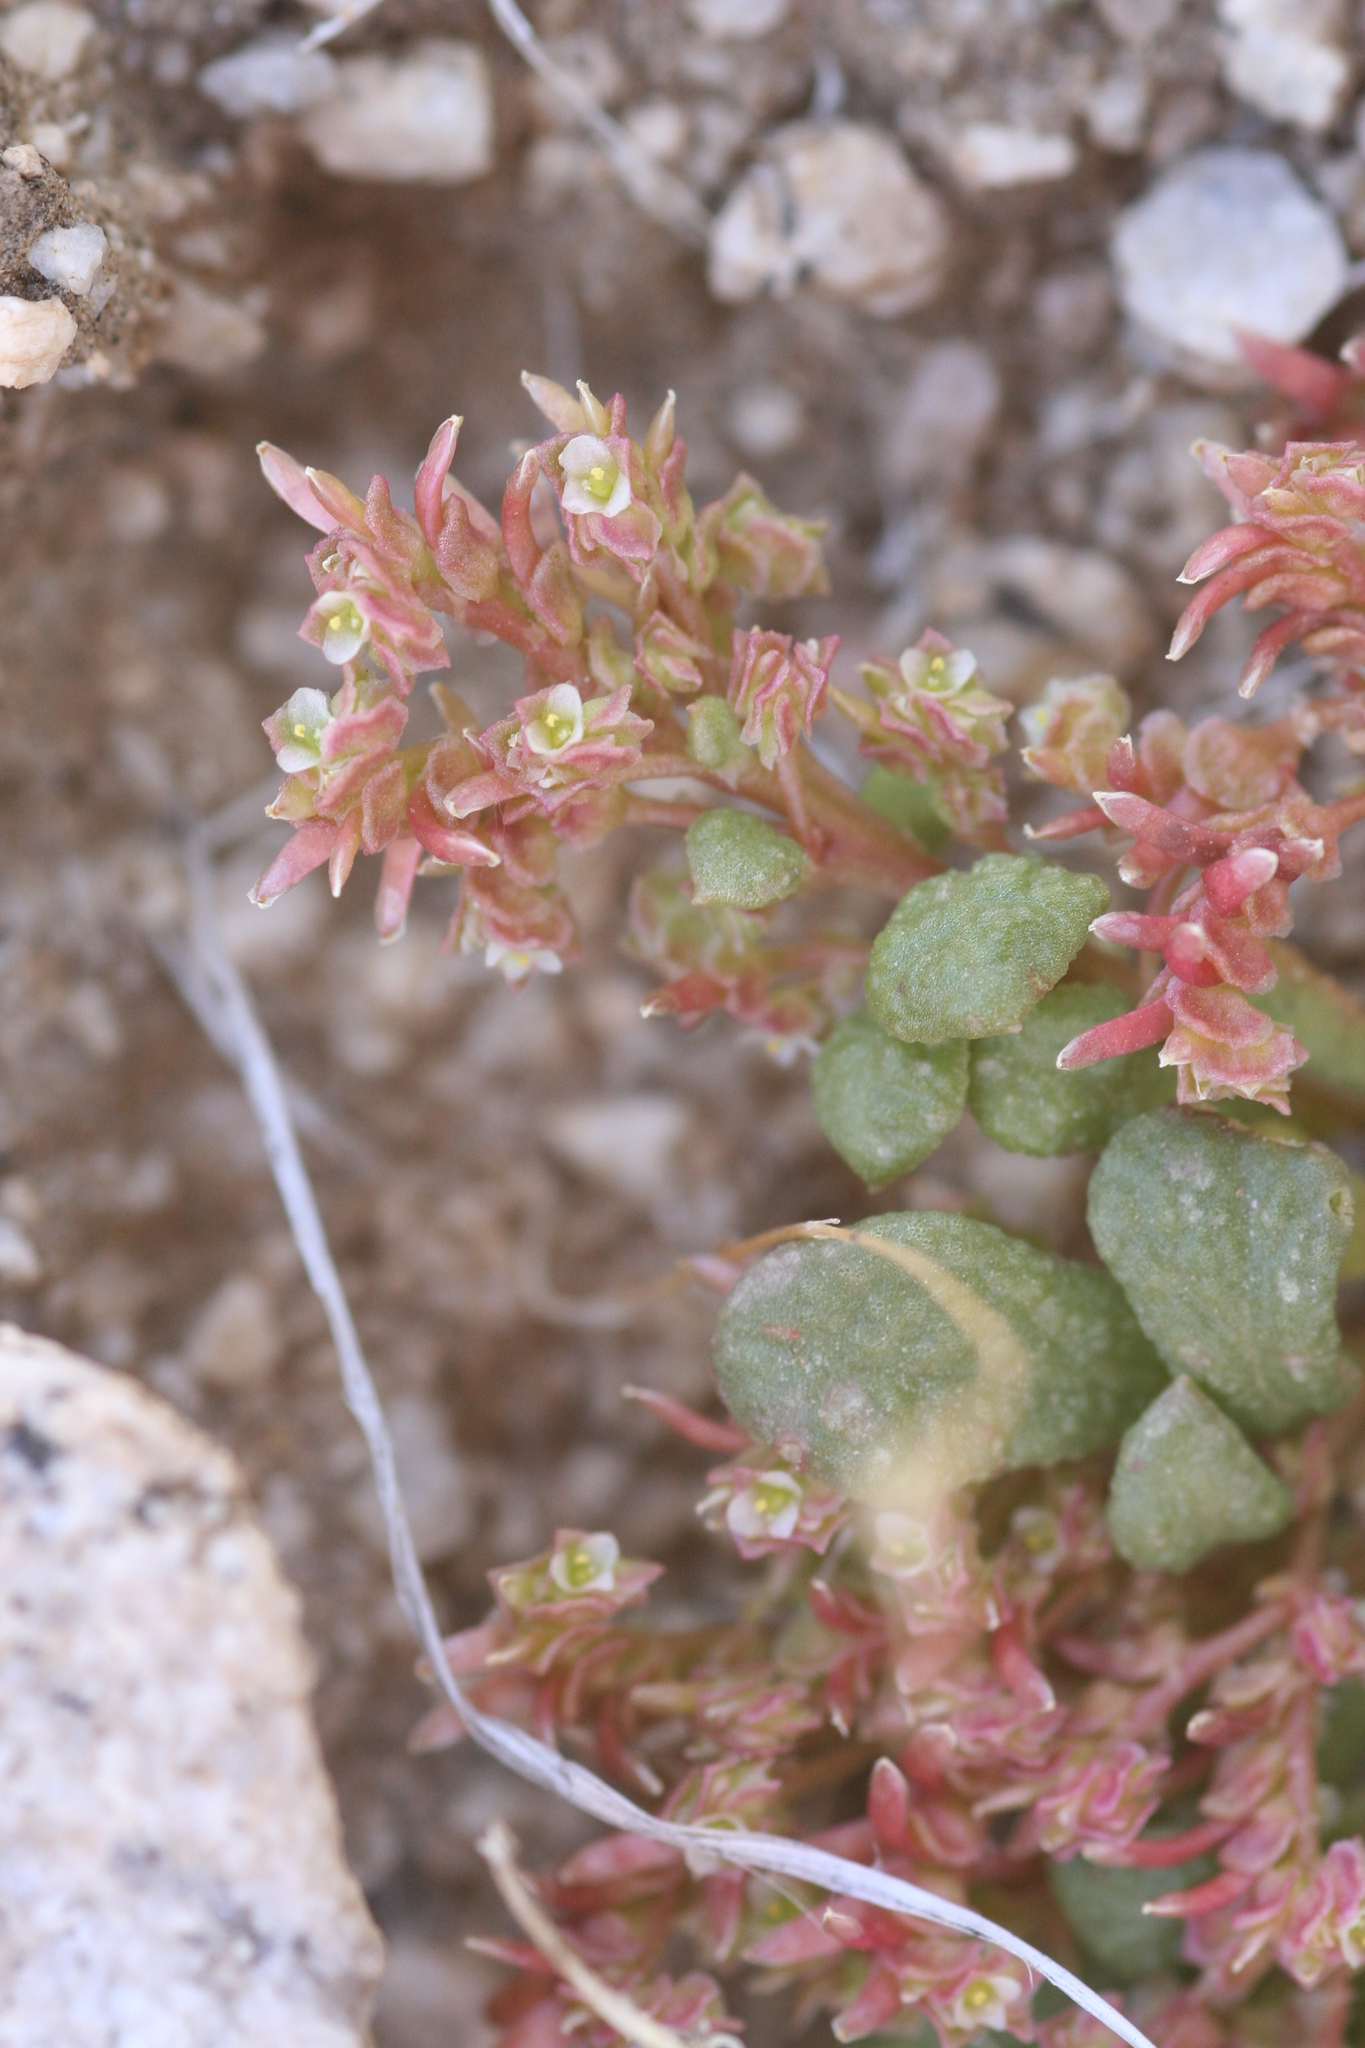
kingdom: Plantae
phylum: Tracheophyta
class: Magnoliopsida
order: Caryophyllales
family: Montiaceae
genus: Calyptridium
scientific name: Calyptridium monandrum
